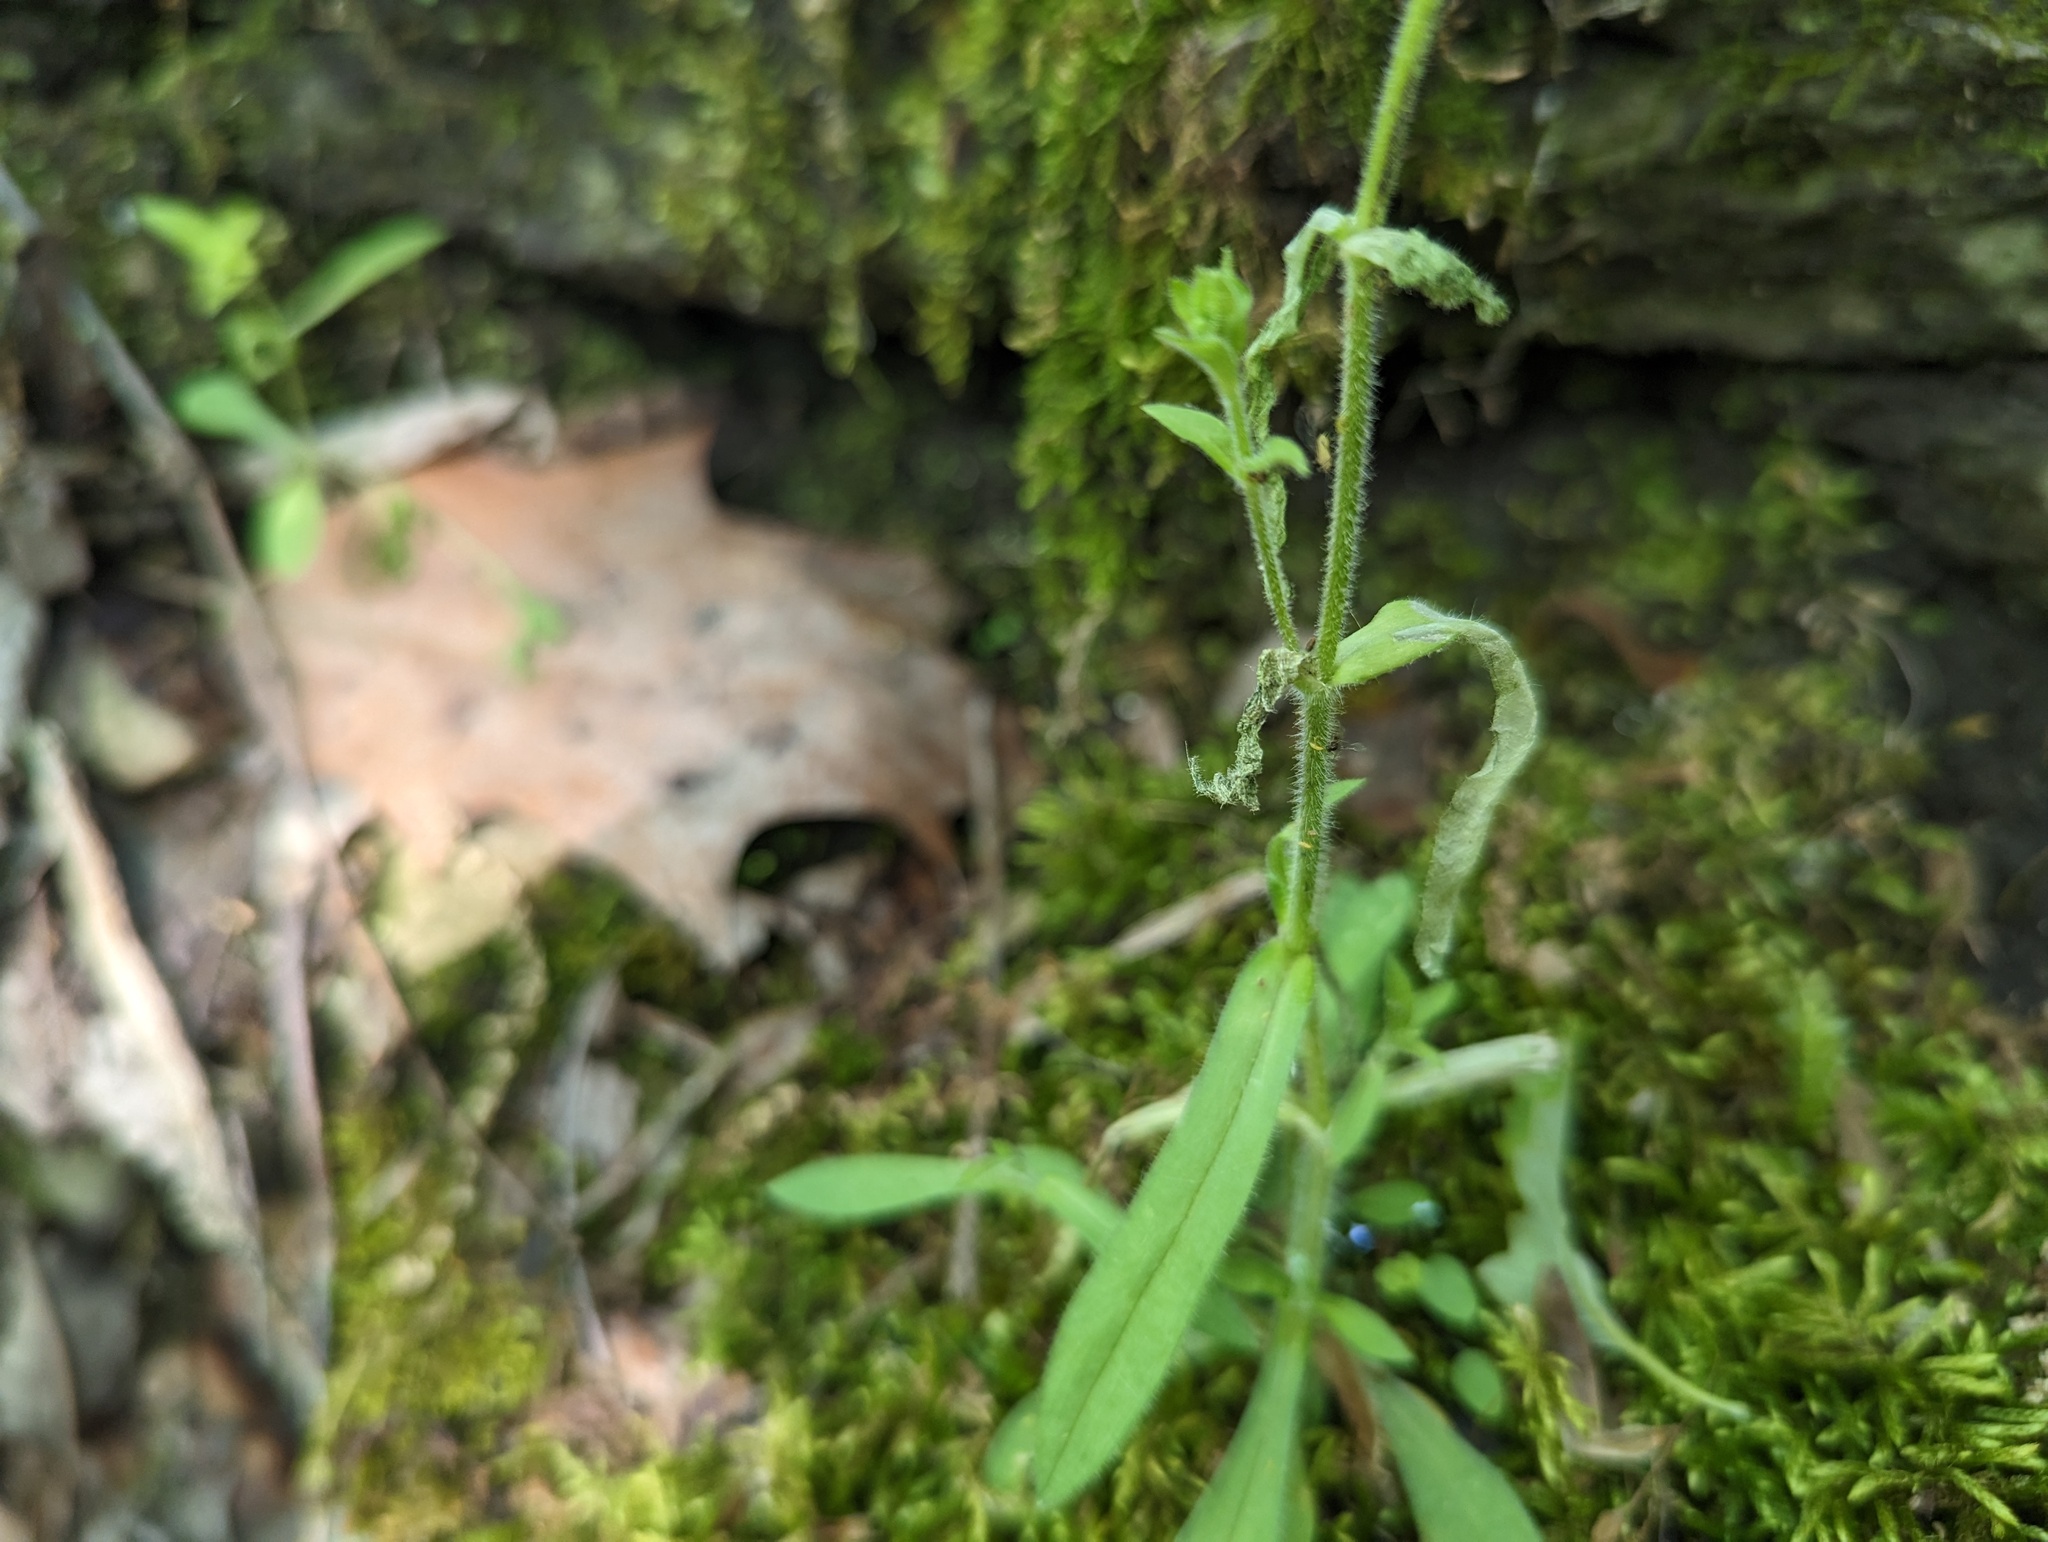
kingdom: Plantae
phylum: Tracheophyta
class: Magnoliopsida
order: Caryophyllales
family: Caryophyllaceae
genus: Cerastium
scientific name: Cerastium nutans
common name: Long-stalked chickweed
